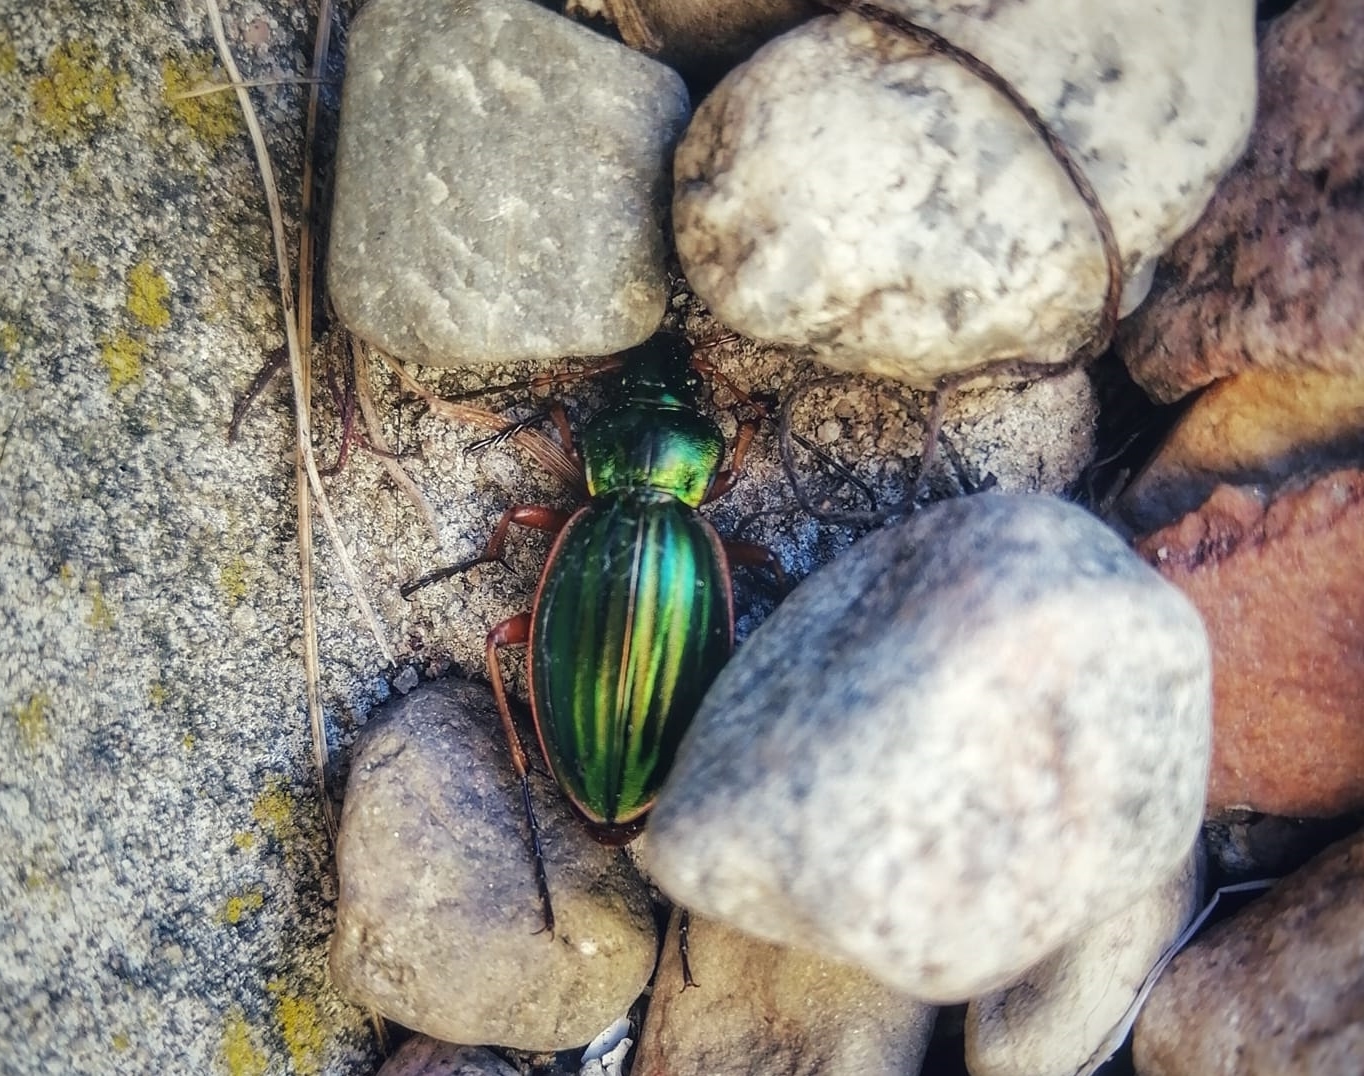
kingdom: Animalia
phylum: Arthropoda
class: Insecta
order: Coleoptera
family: Carabidae
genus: Carabus
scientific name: Carabus auratus
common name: Golden ground beetle
